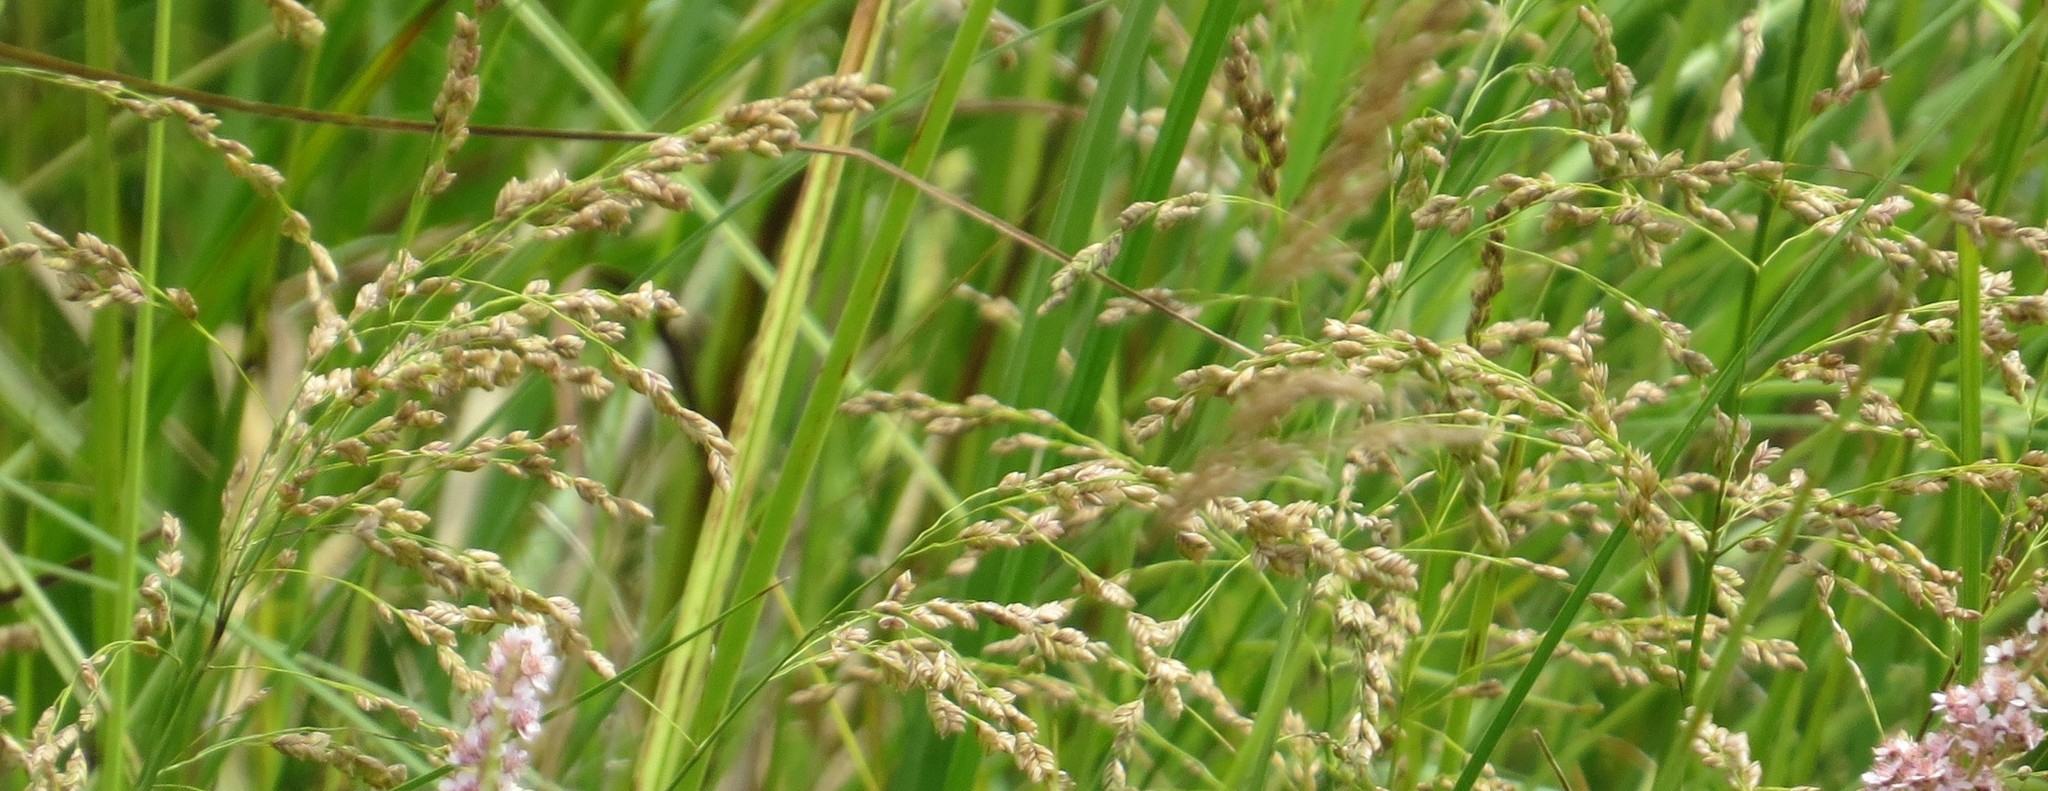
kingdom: Plantae
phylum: Tracheophyta
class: Liliopsida
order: Poales
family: Poaceae
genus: Glyceria
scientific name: Glyceria canadensis
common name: Canada mannagrass
